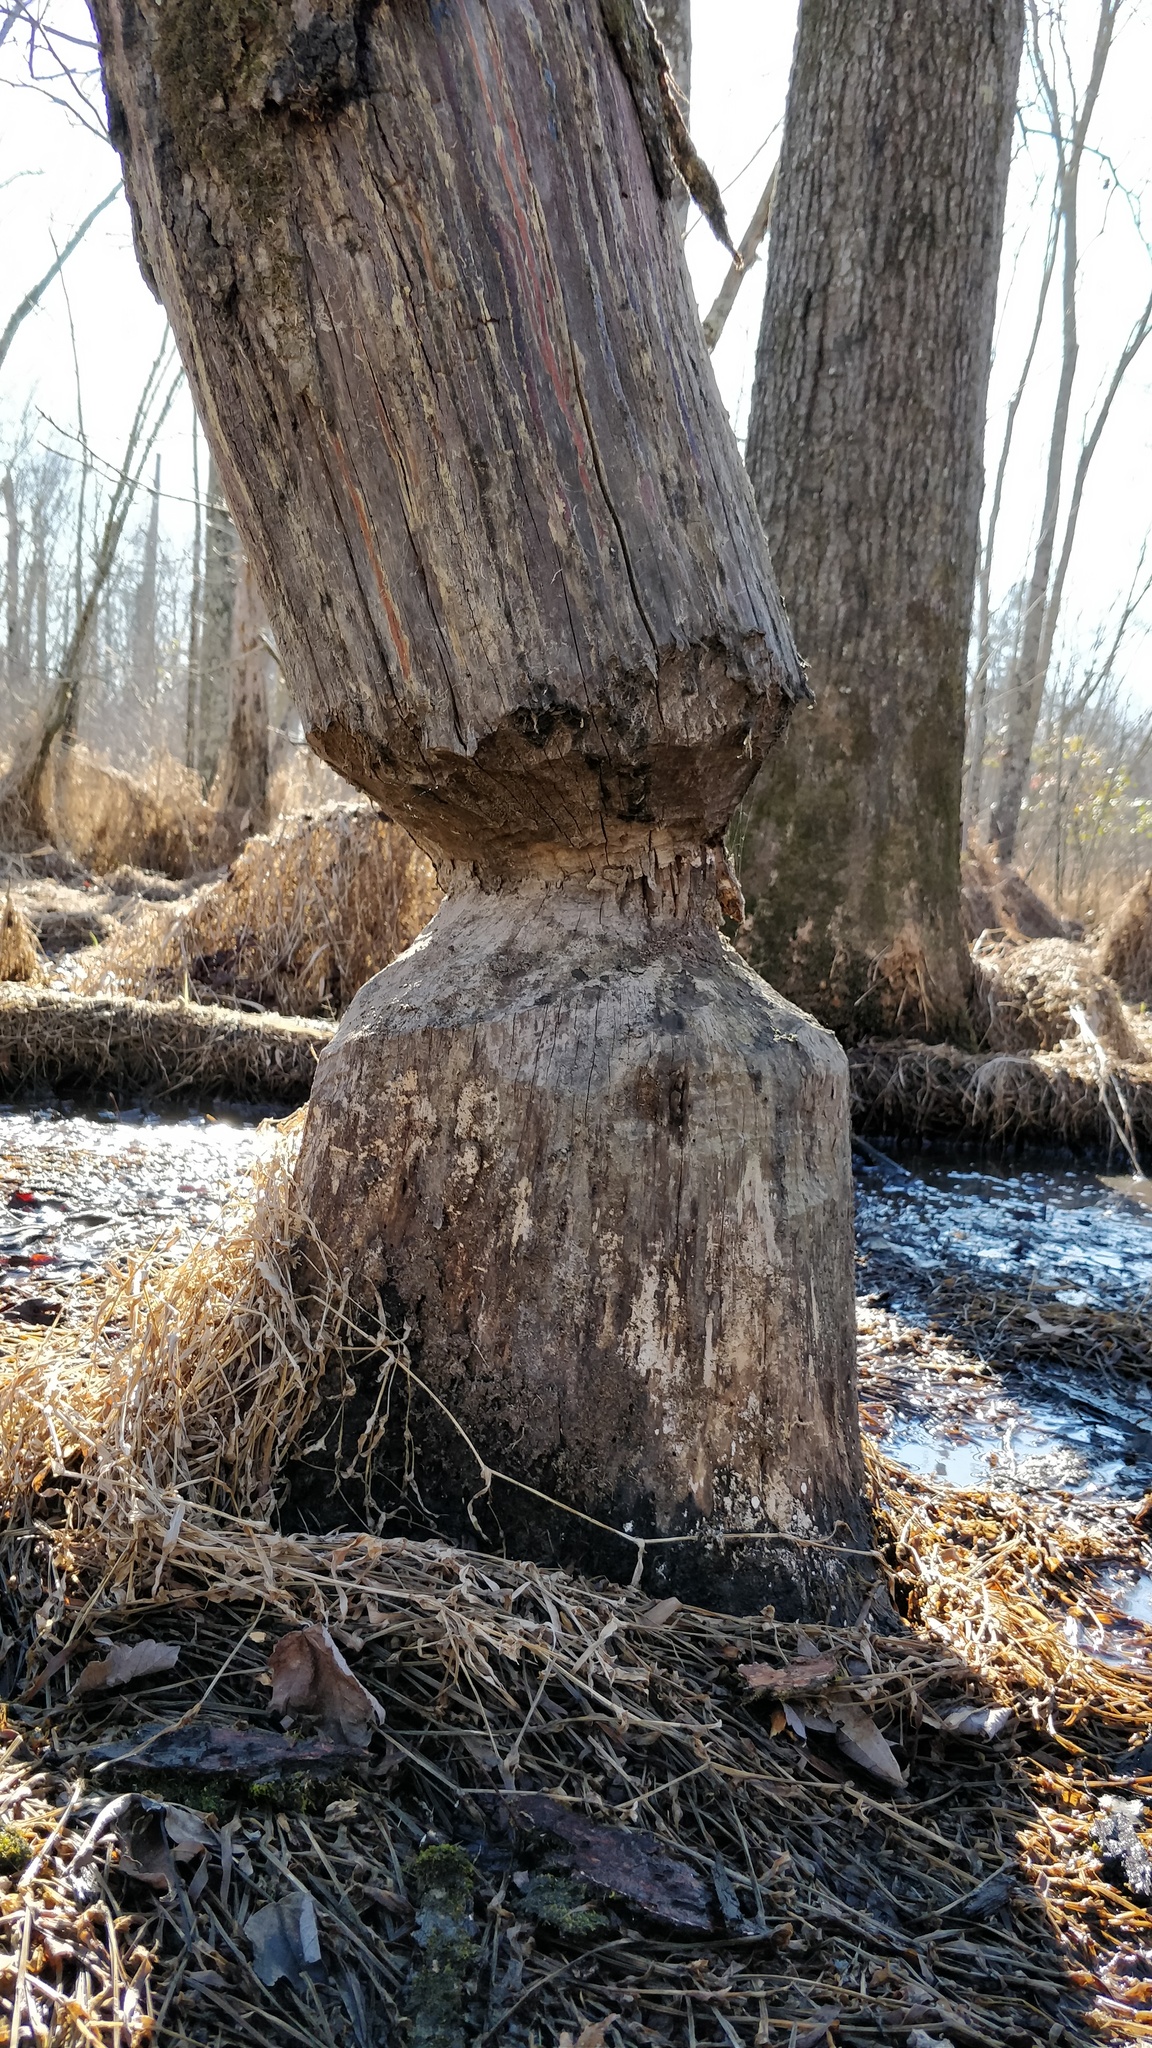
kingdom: Animalia
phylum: Chordata
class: Mammalia
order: Rodentia
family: Castoridae
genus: Castor
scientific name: Castor canadensis
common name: American beaver
